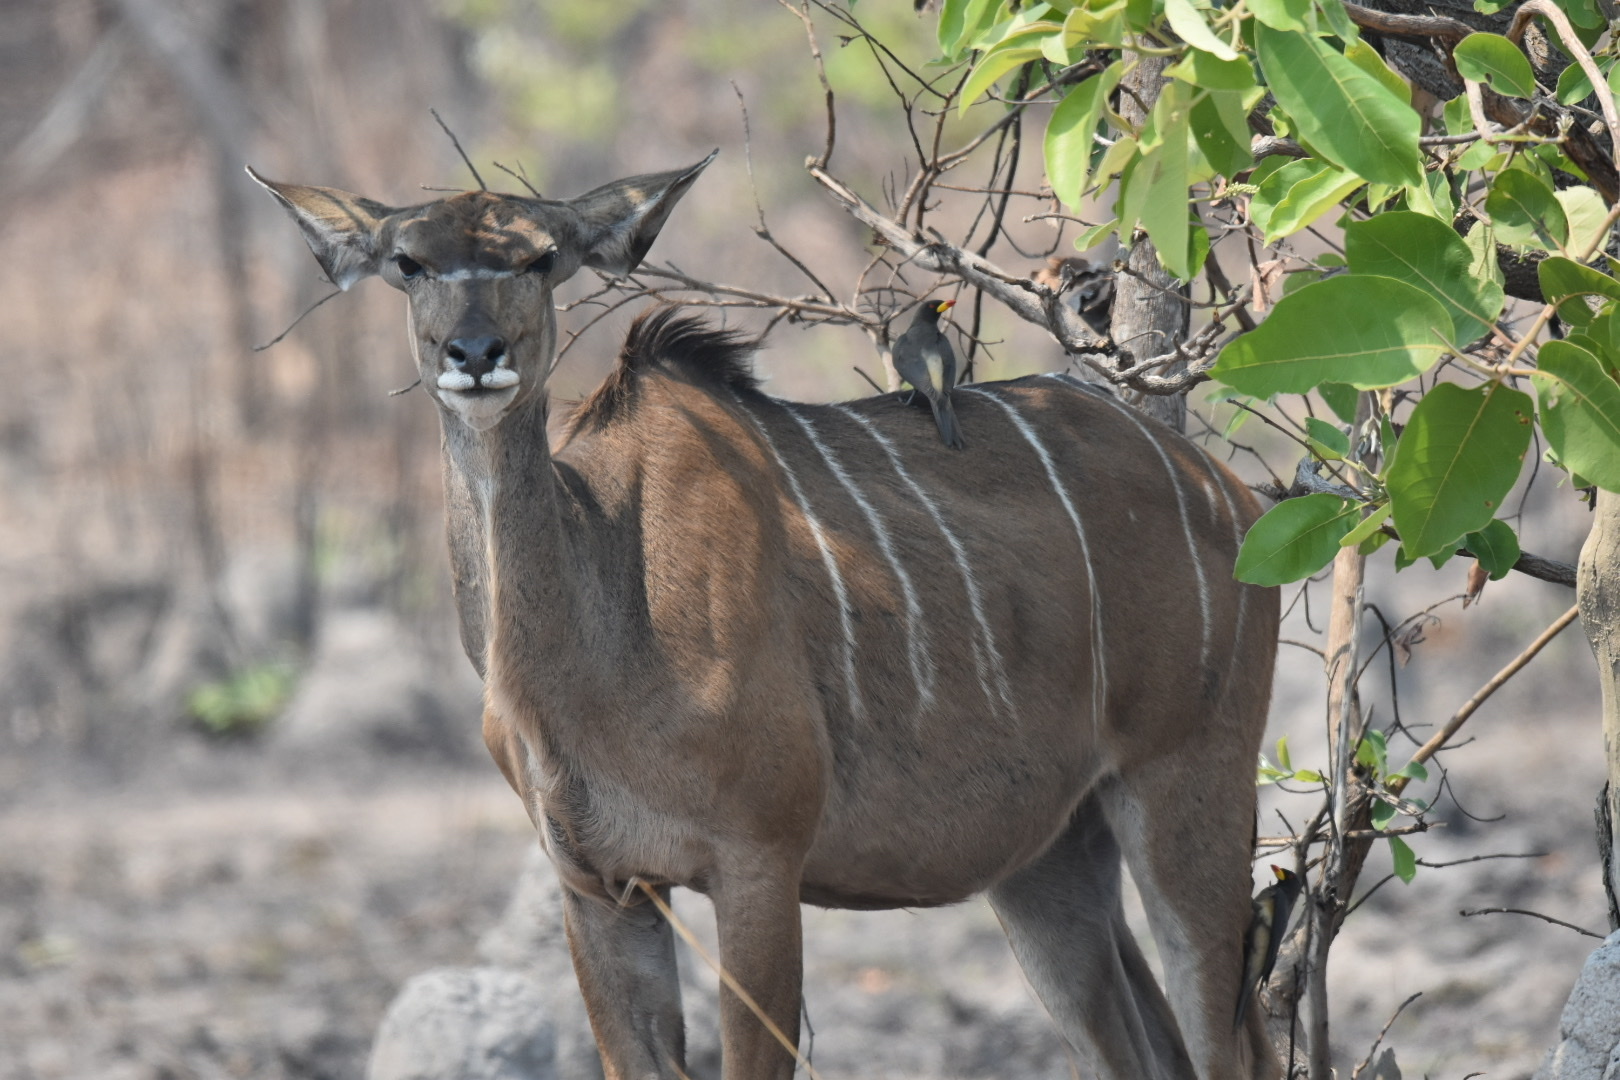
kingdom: Animalia
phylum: Chordata
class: Aves
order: Passeriformes
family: Buphagidae
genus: Buphagus
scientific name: Buphagus africanus
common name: Yellow-billed oxpecker
